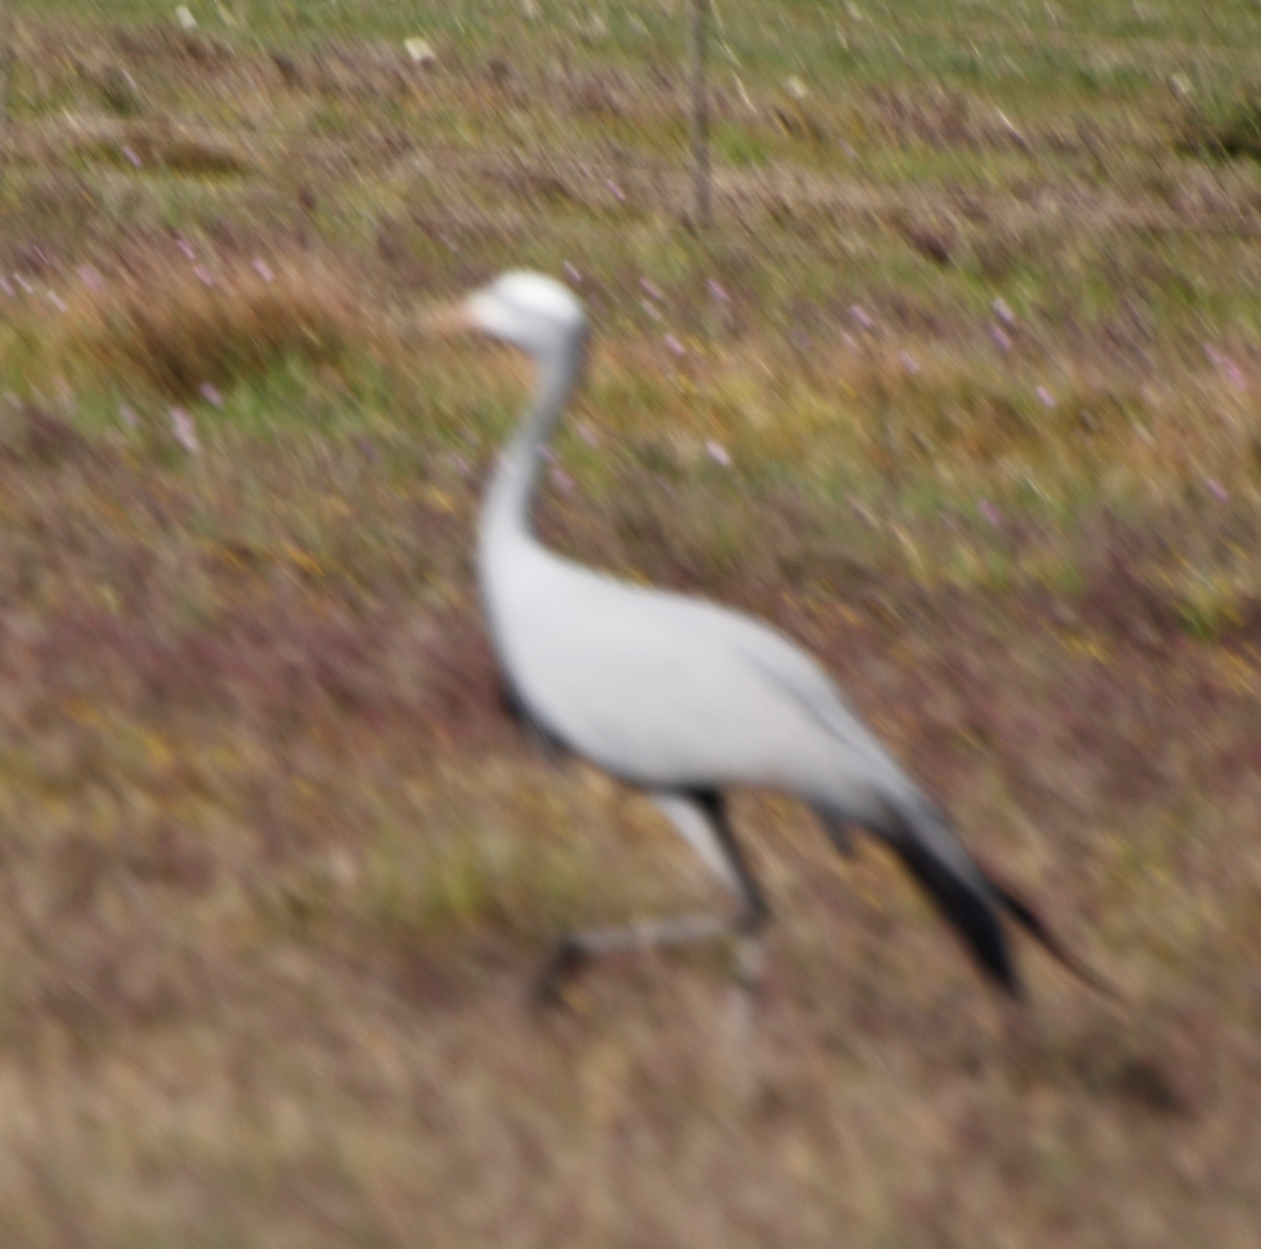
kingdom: Animalia
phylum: Chordata
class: Aves
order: Gruiformes
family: Gruidae
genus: Anthropoides
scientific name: Anthropoides paradiseus
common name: Blue crane
